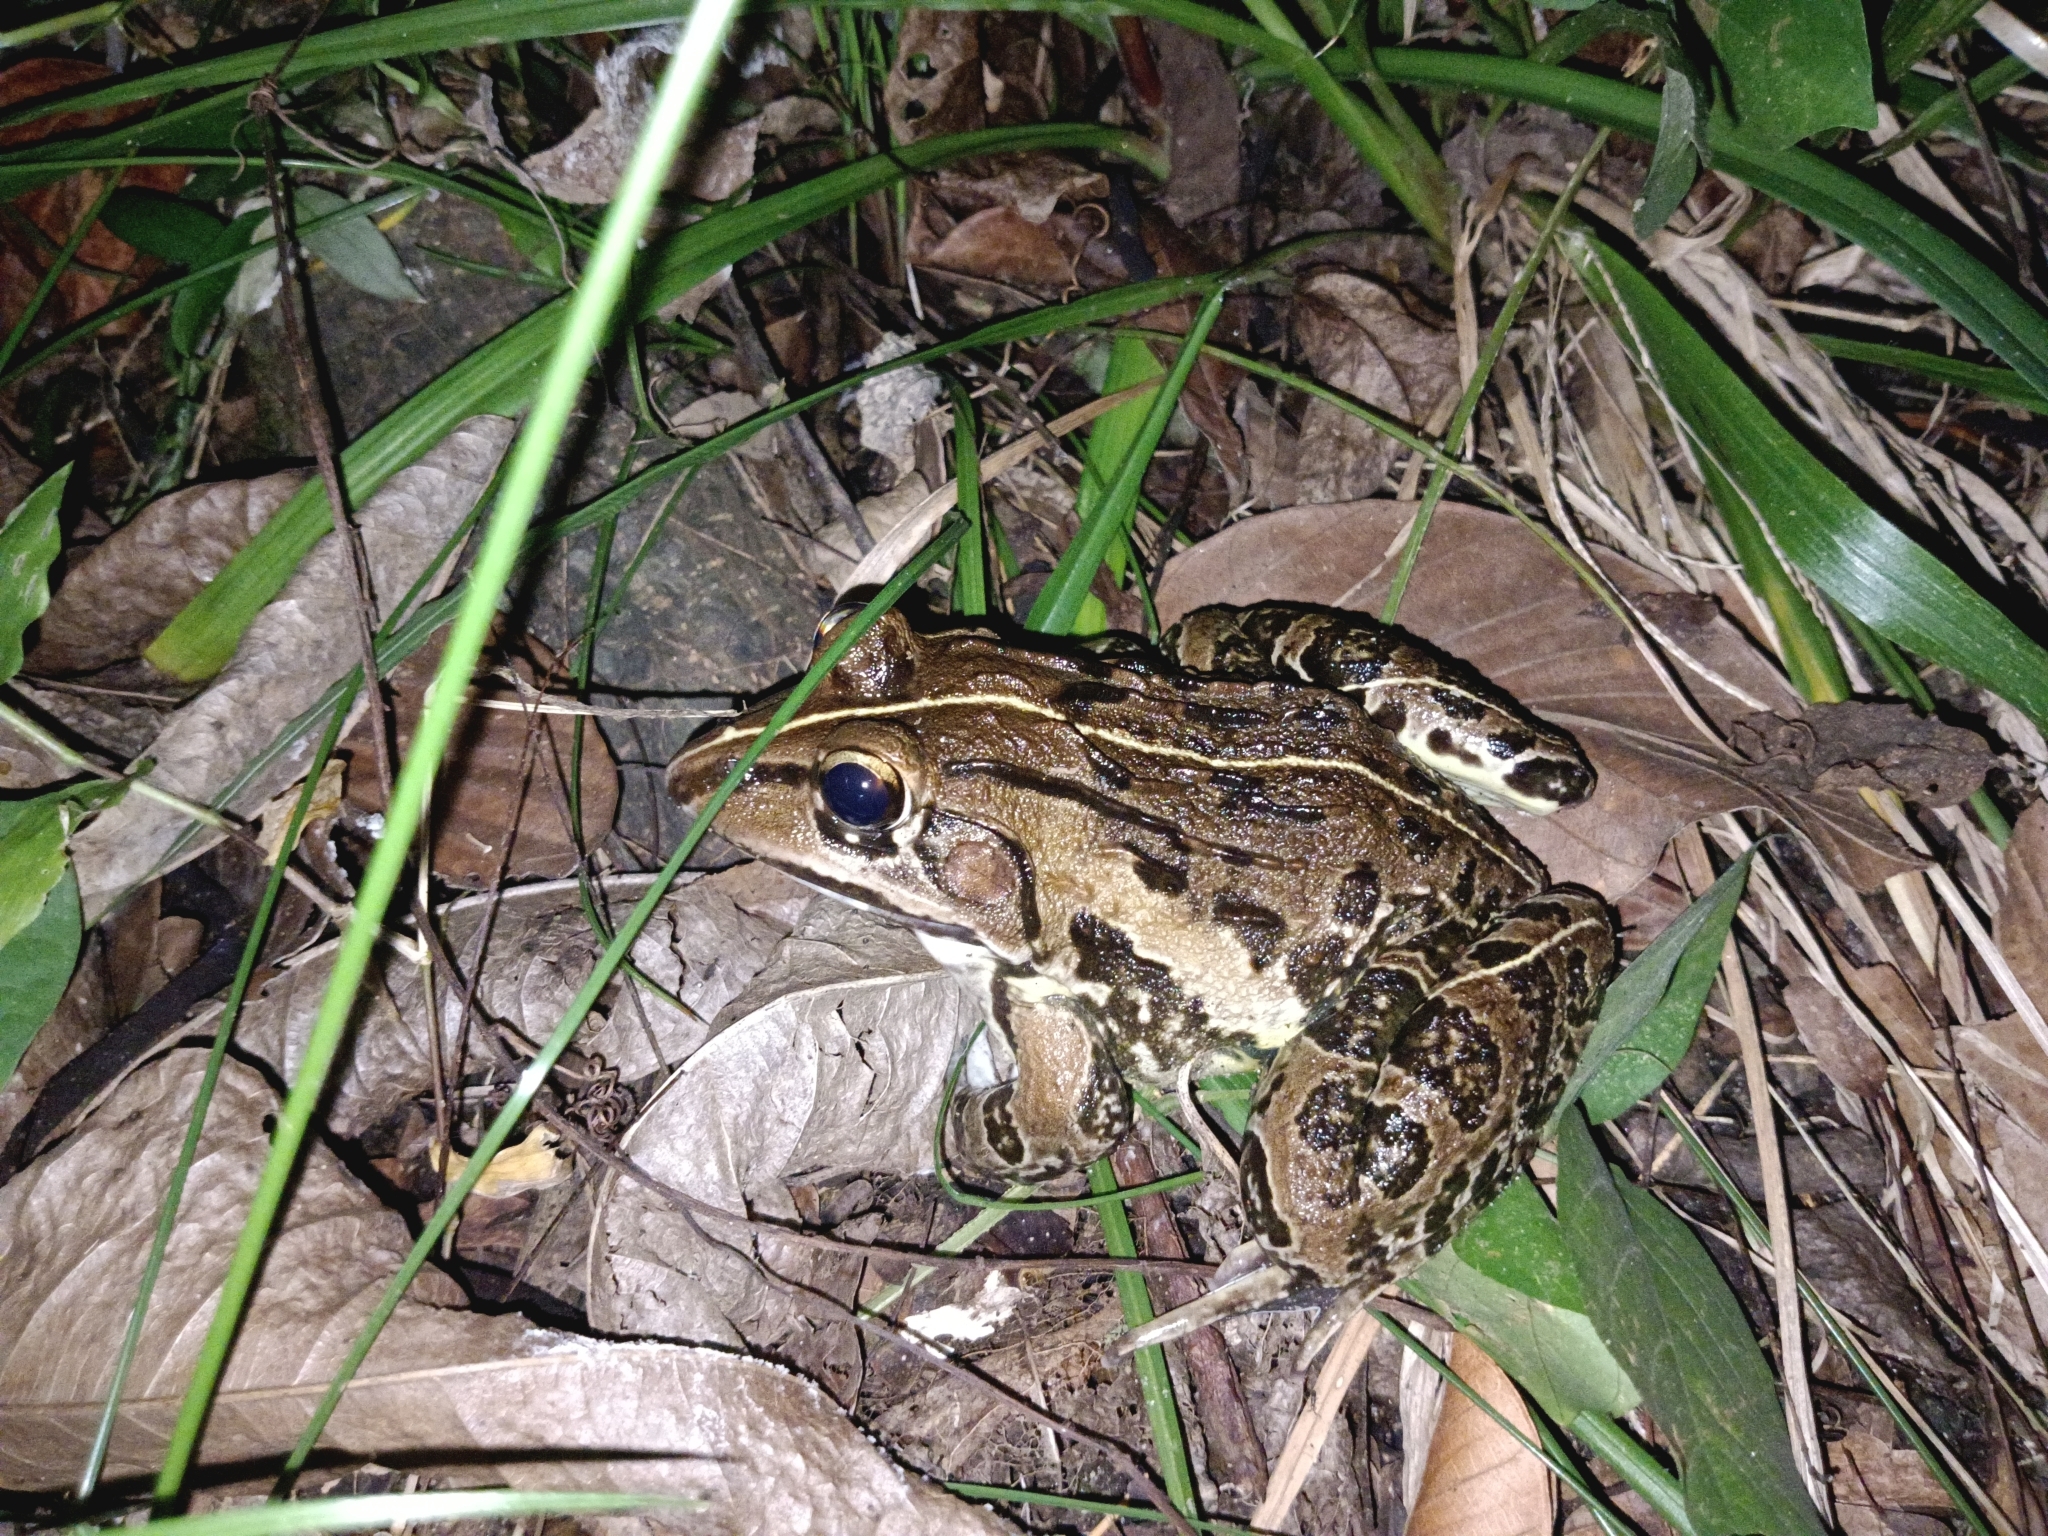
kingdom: Animalia
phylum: Chordata
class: Amphibia
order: Anura
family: Dicroglossidae
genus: Hoplobatrachus
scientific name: Hoplobatrachus tigerinus
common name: Indian bullfrog
